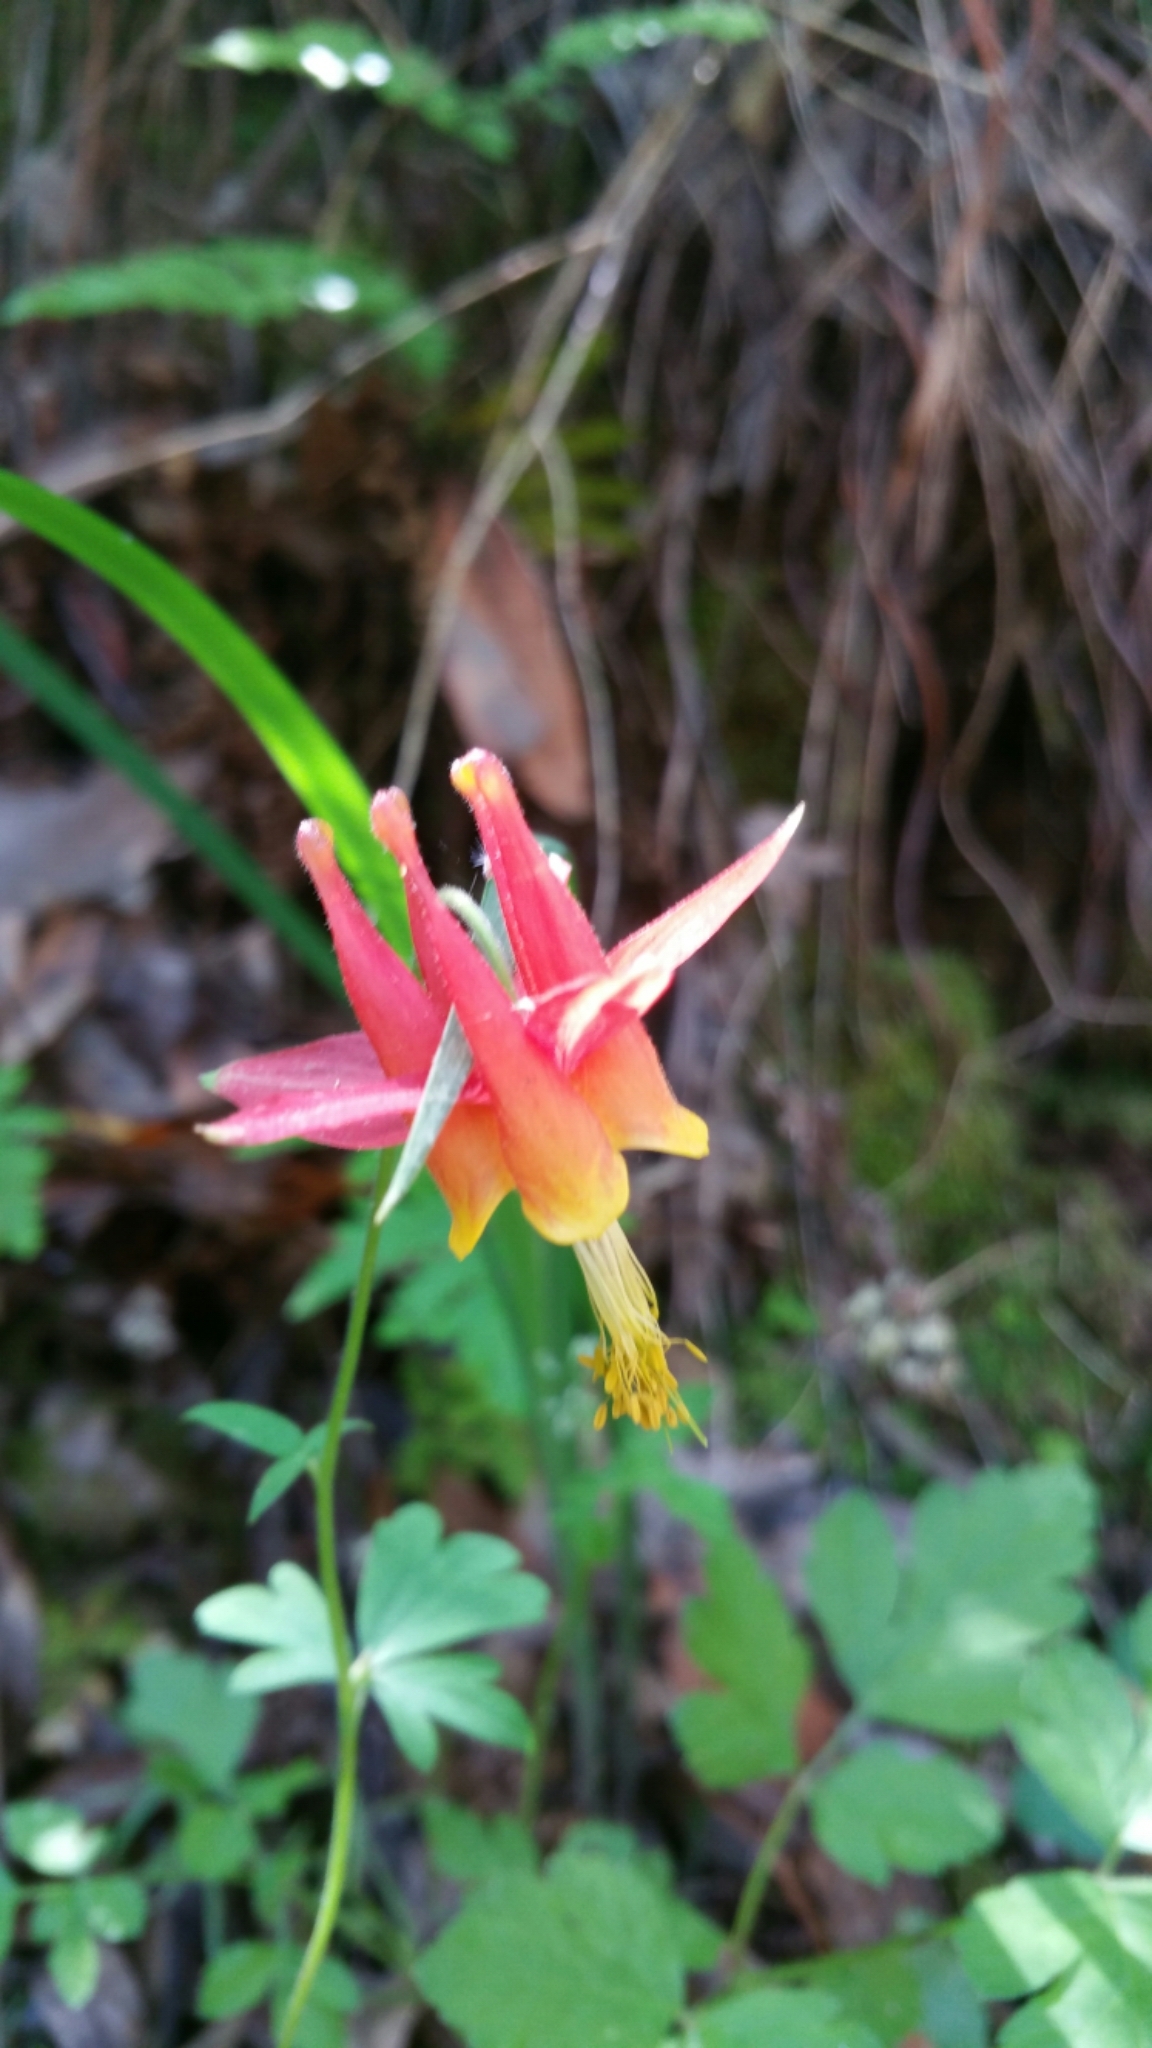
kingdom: Plantae
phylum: Tracheophyta
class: Magnoliopsida
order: Ranunculales
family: Ranunculaceae
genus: Aquilegia
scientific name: Aquilegia formosa
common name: Sitka columbine
